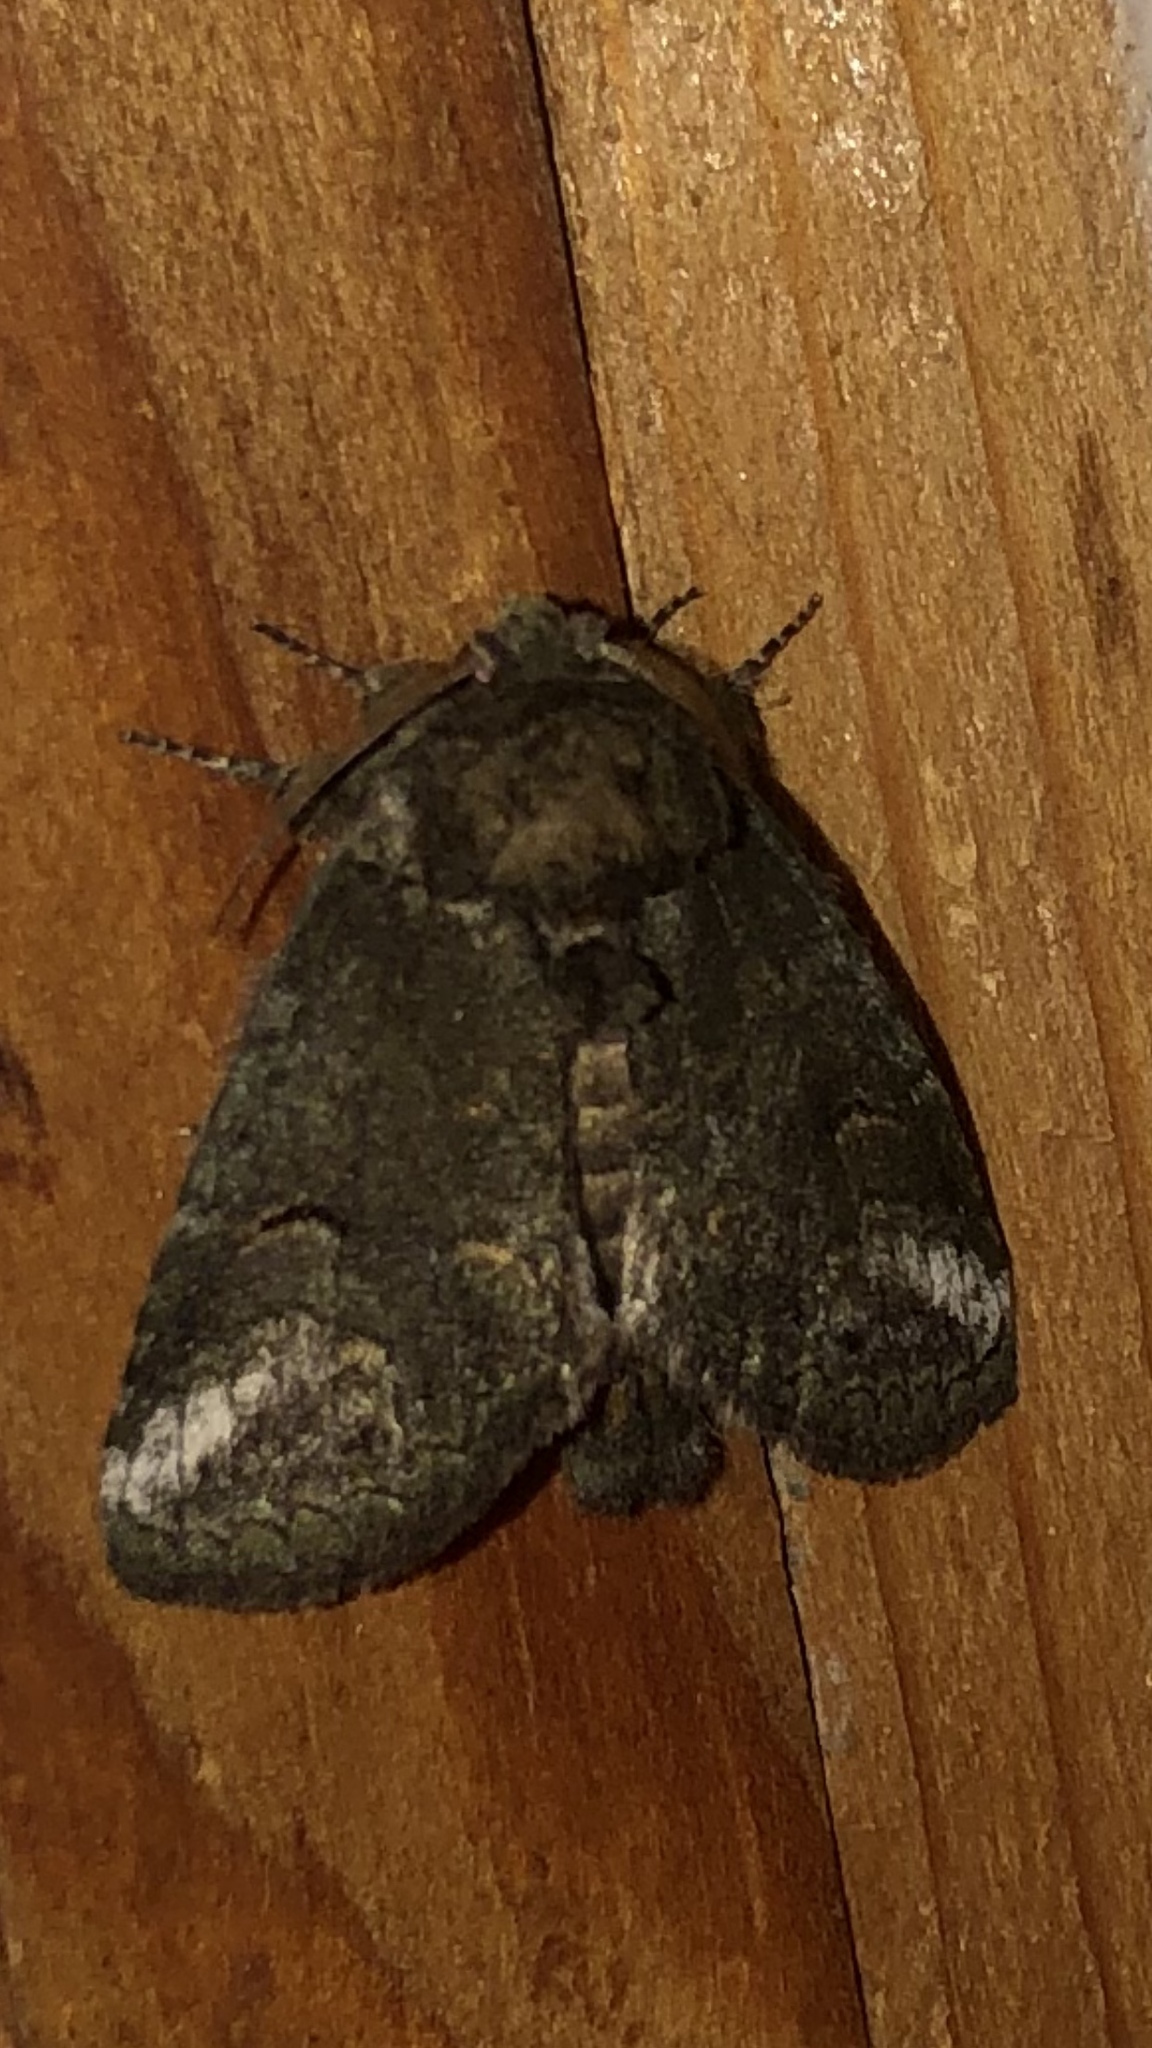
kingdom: Animalia
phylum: Arthropoda
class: Insecta
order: Lepidoptera
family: Notodontidae
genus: Rifargia
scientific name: Rifargia
